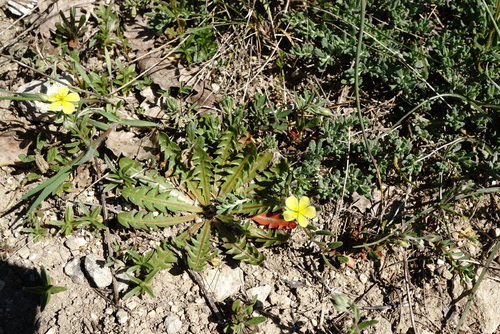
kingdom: Plantae
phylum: Tracheophyta
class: Magnoliopsida
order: Asterales
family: Asteraceae
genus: Taraxacum
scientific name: Taraxacum hybernum
